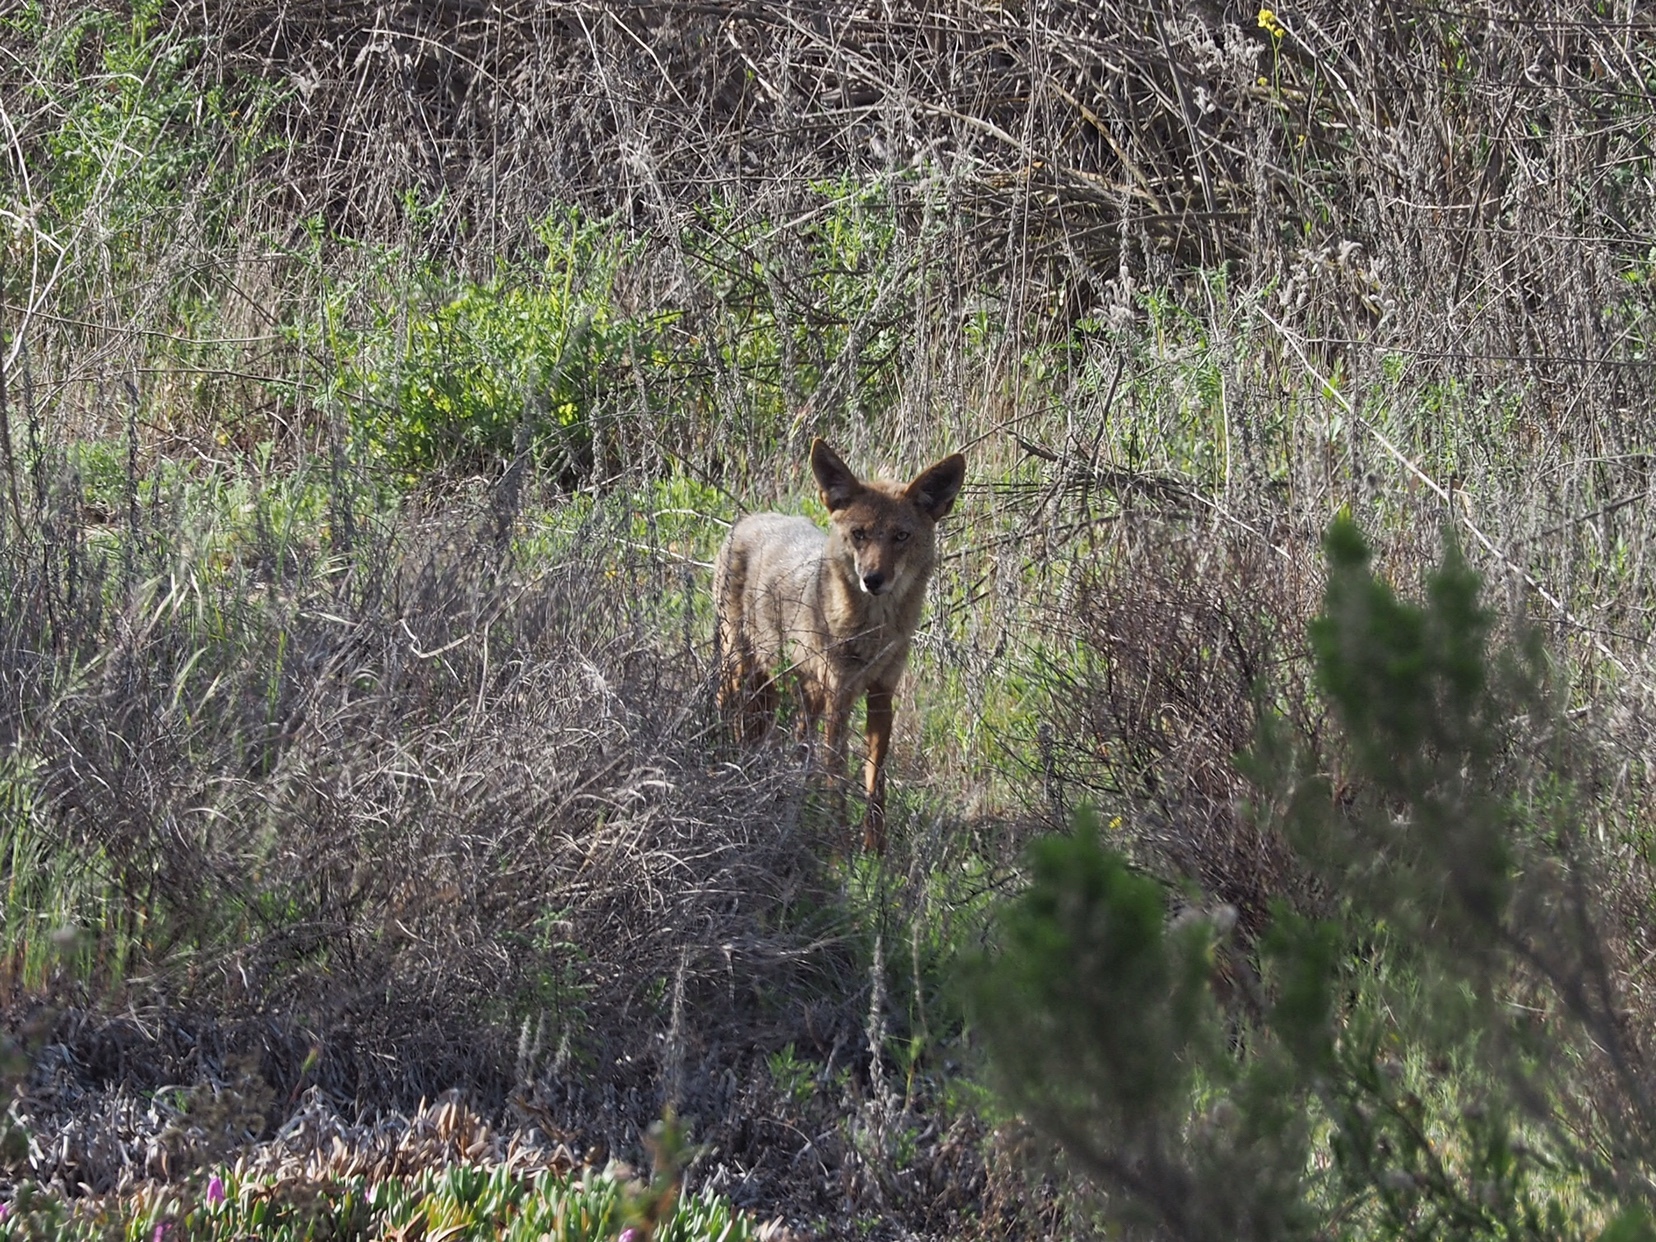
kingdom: Animalia
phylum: Chordata
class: Mammalia
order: Carnivora
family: Canidae
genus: Canis
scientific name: Canis latrans
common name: Coyote
